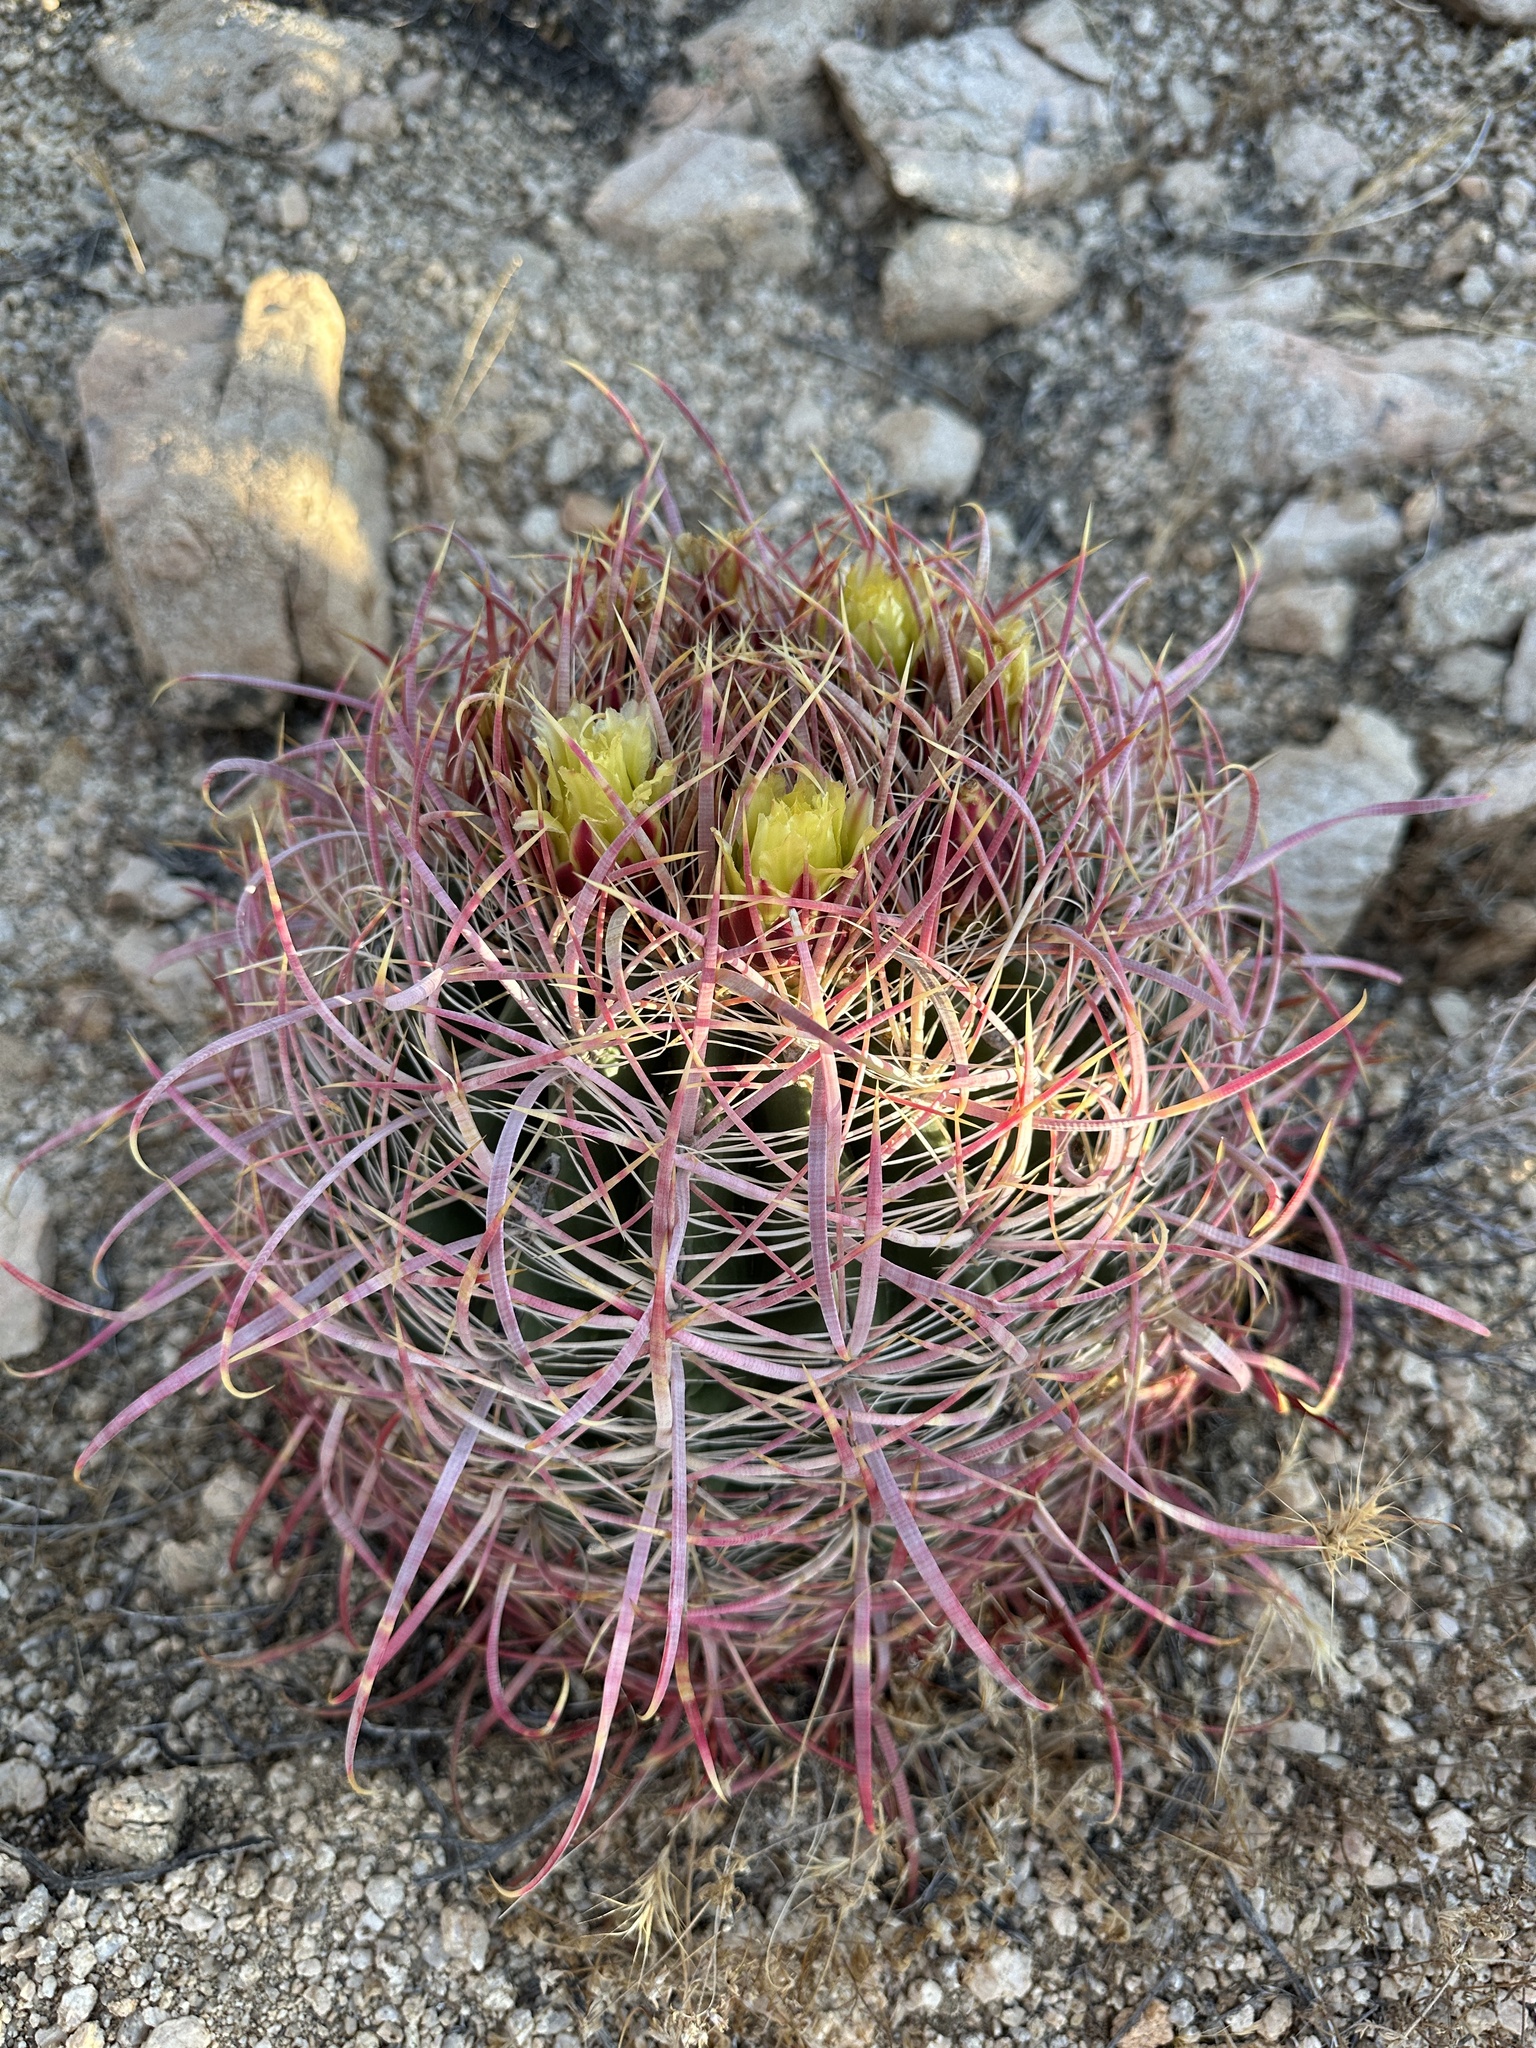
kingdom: Plantae
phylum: Tracheophyta
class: Magnoliopsida
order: Caryophyllales
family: Cactaceae
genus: Ferocactus
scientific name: Ferocactus cylindraceus
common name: California barrel cactus
